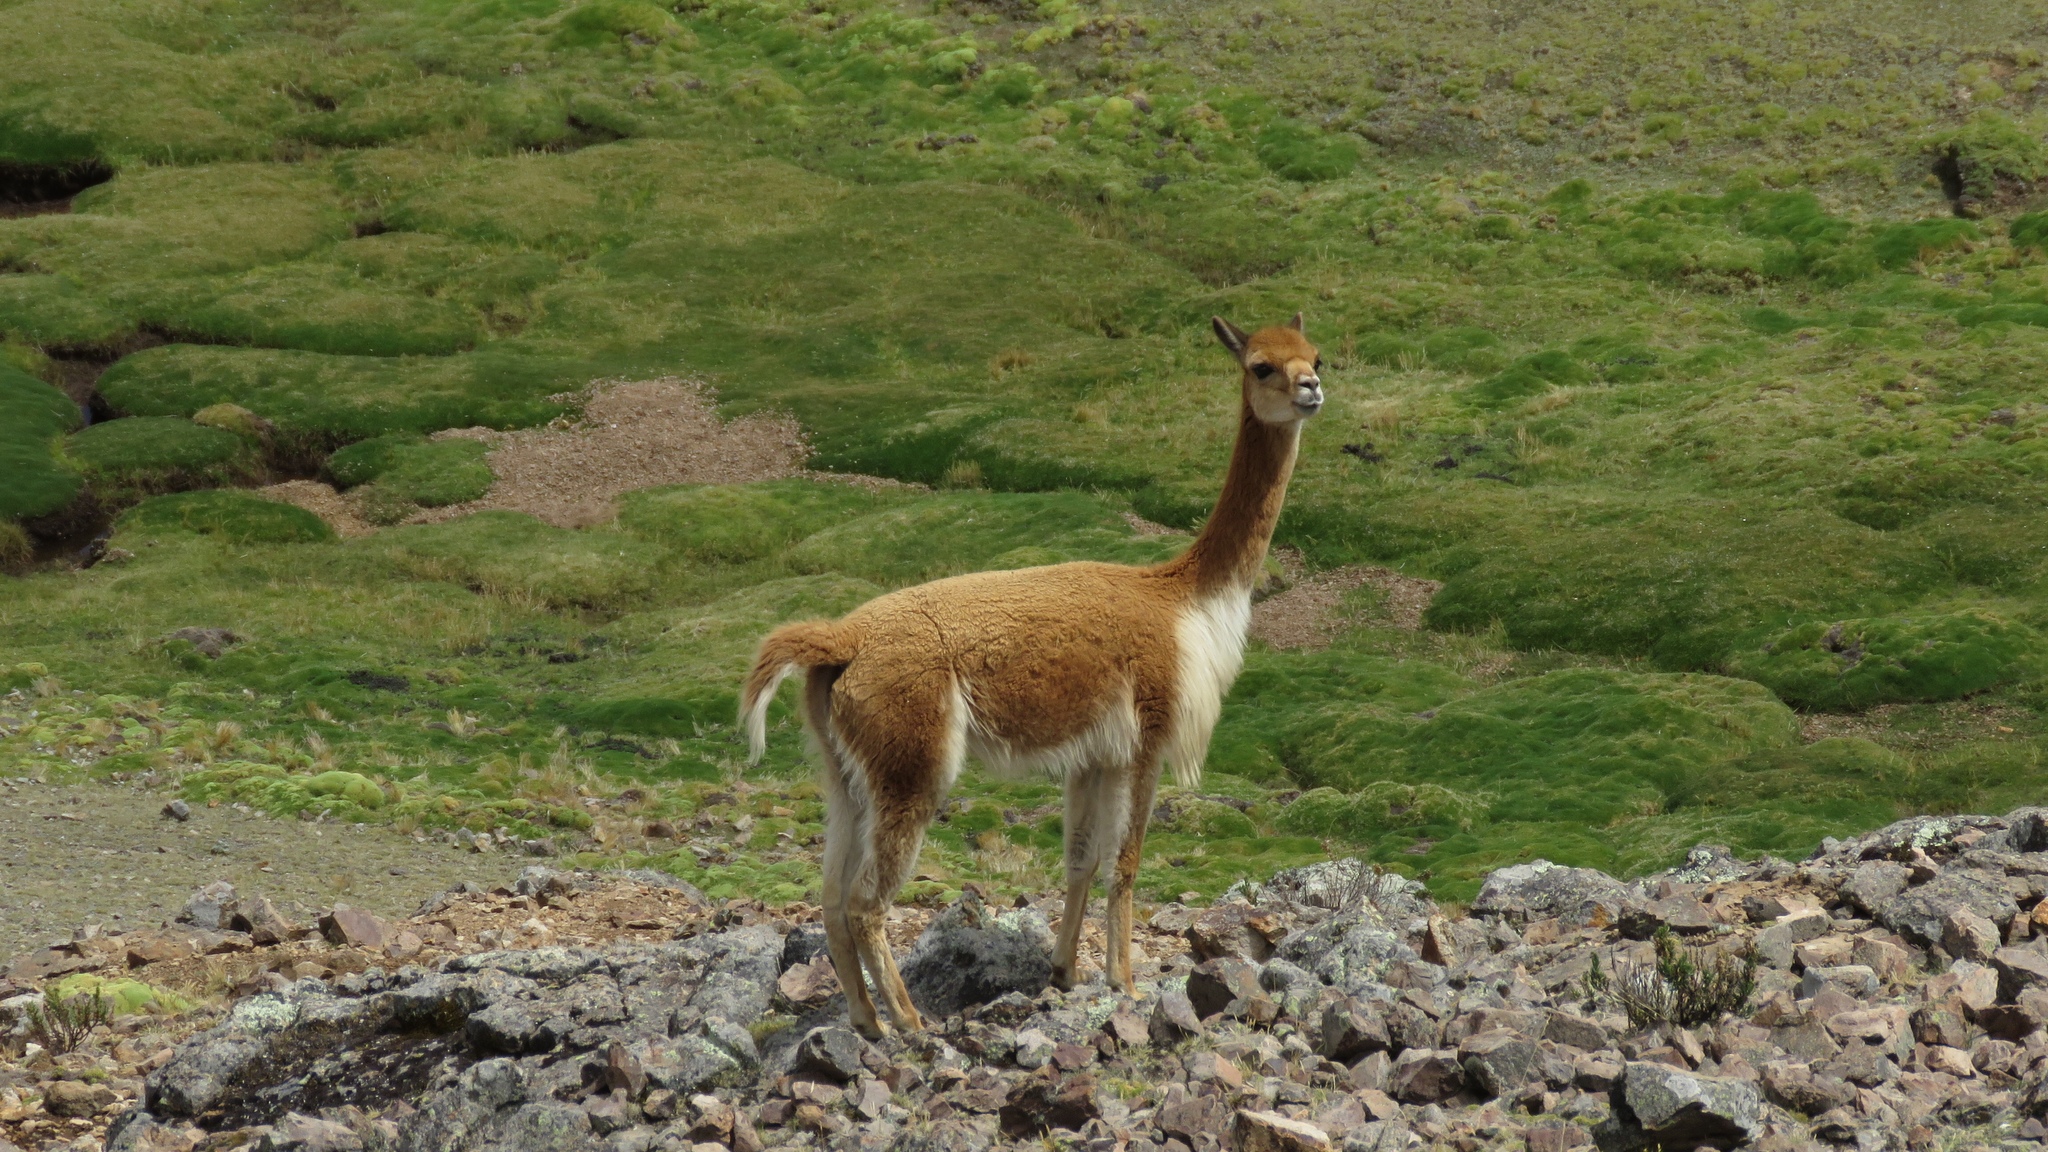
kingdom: Animalia
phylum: Chordata
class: Mammalia
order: Artiodactyla
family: Camelidae
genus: Vicugna
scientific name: Vicugna vicugna
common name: Vicugna
